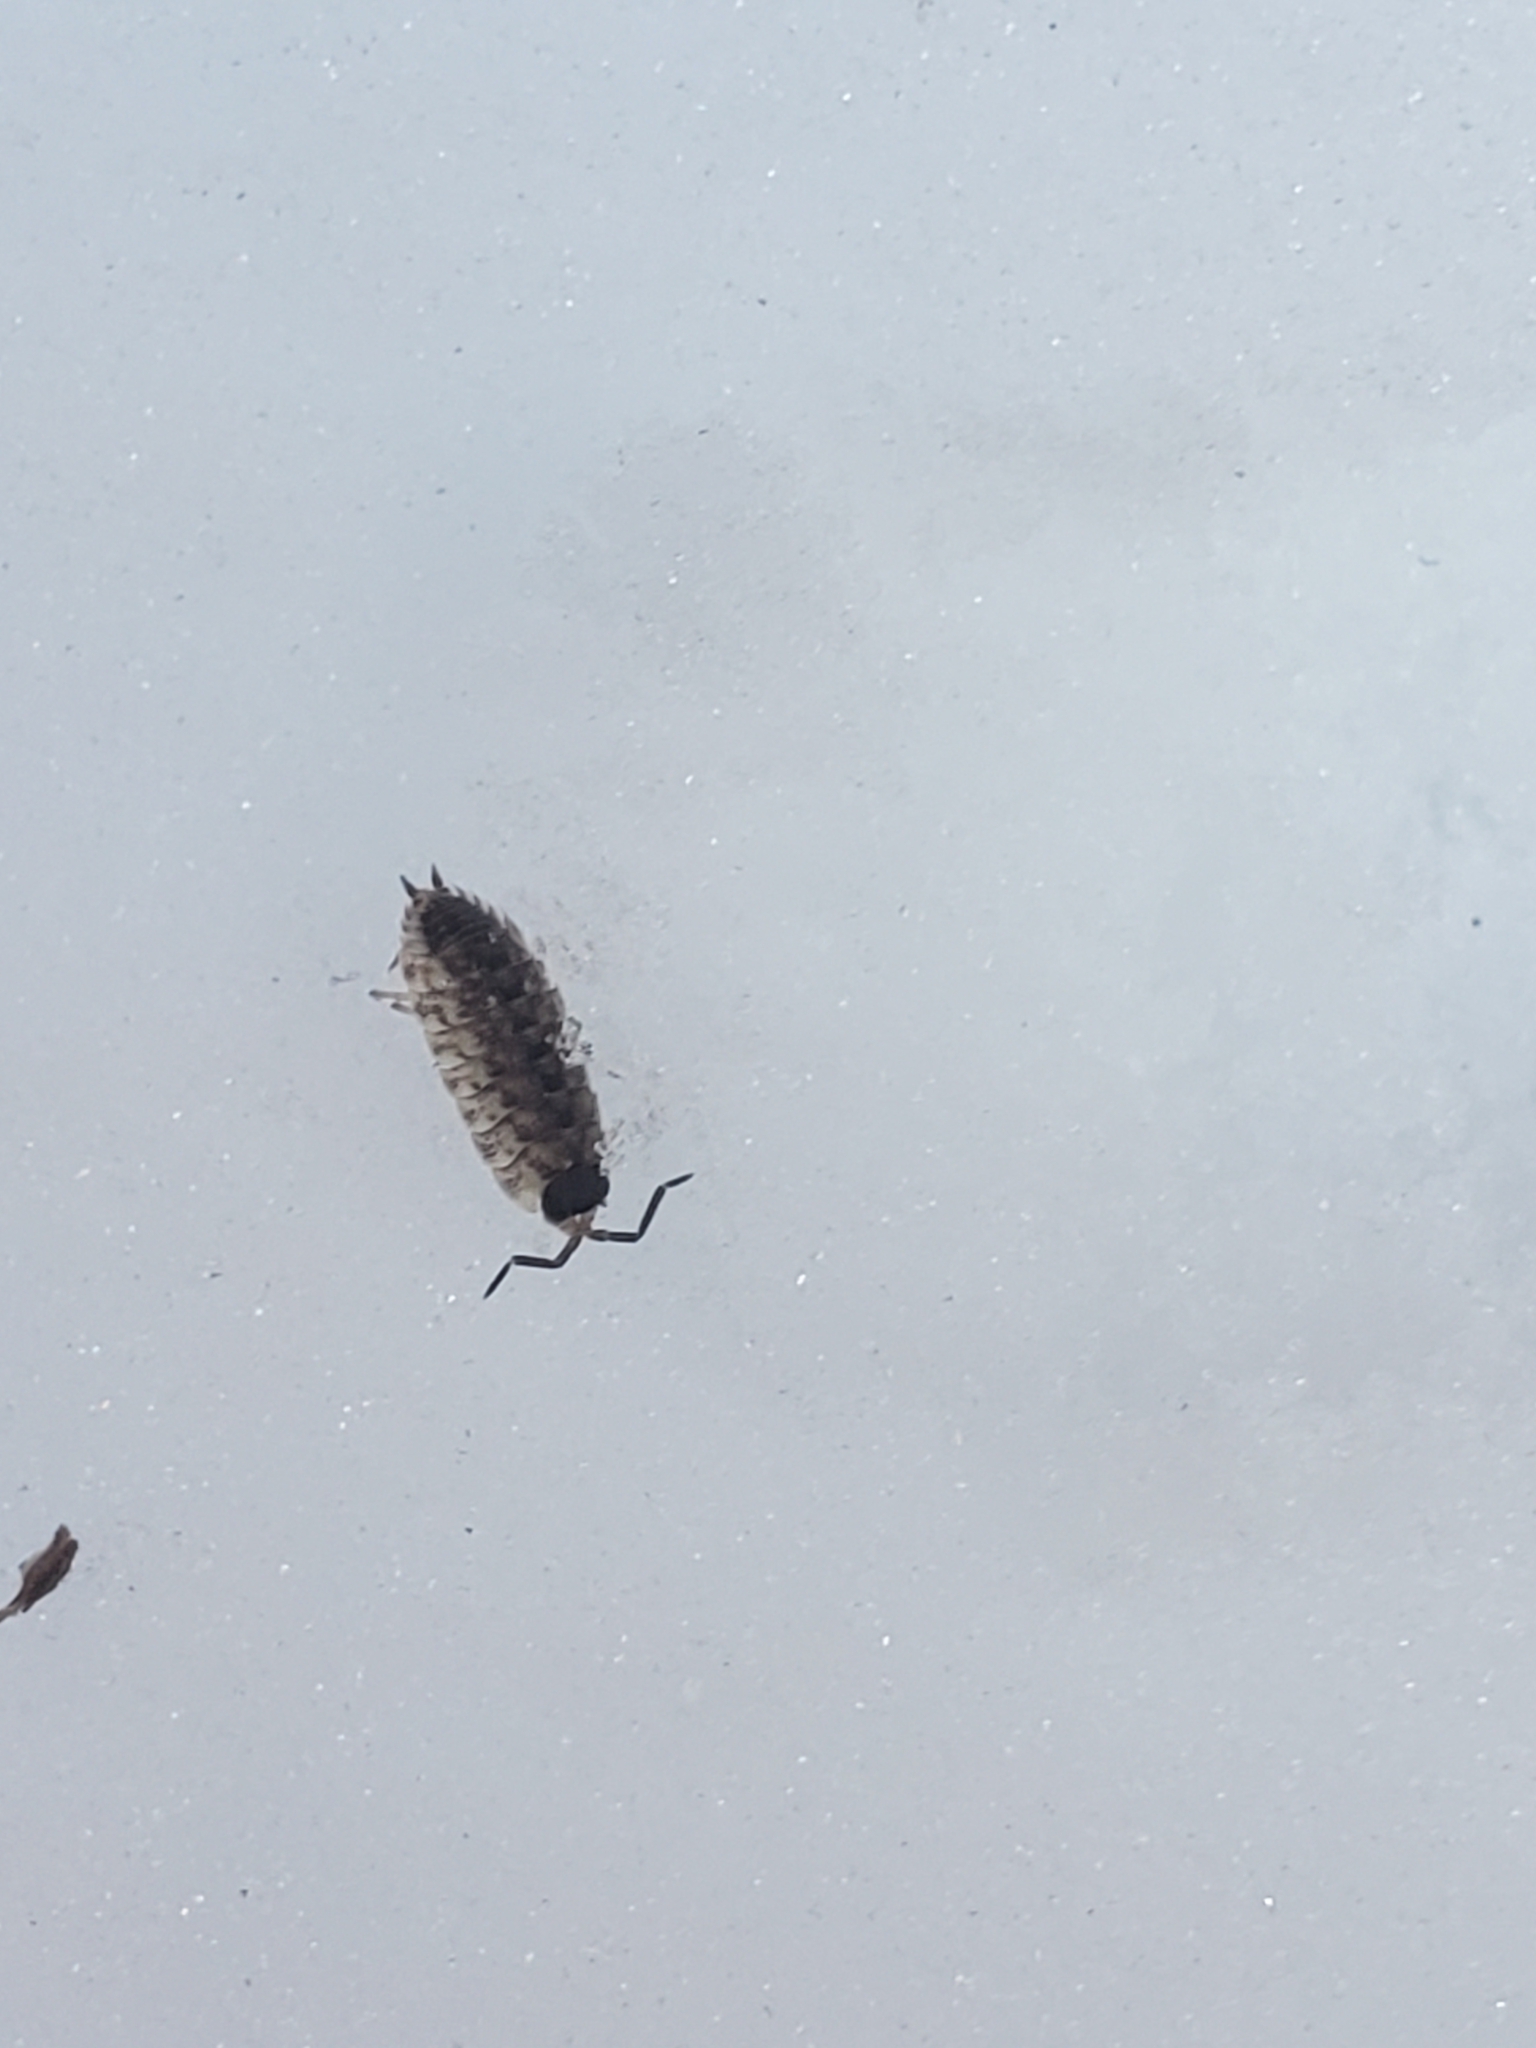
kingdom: Animalia
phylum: Arthropoda
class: Malacostraca
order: Isopoda
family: Porcellionidae
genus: Porcellio
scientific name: Porcellio spinicornis
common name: Painted woodlouse
